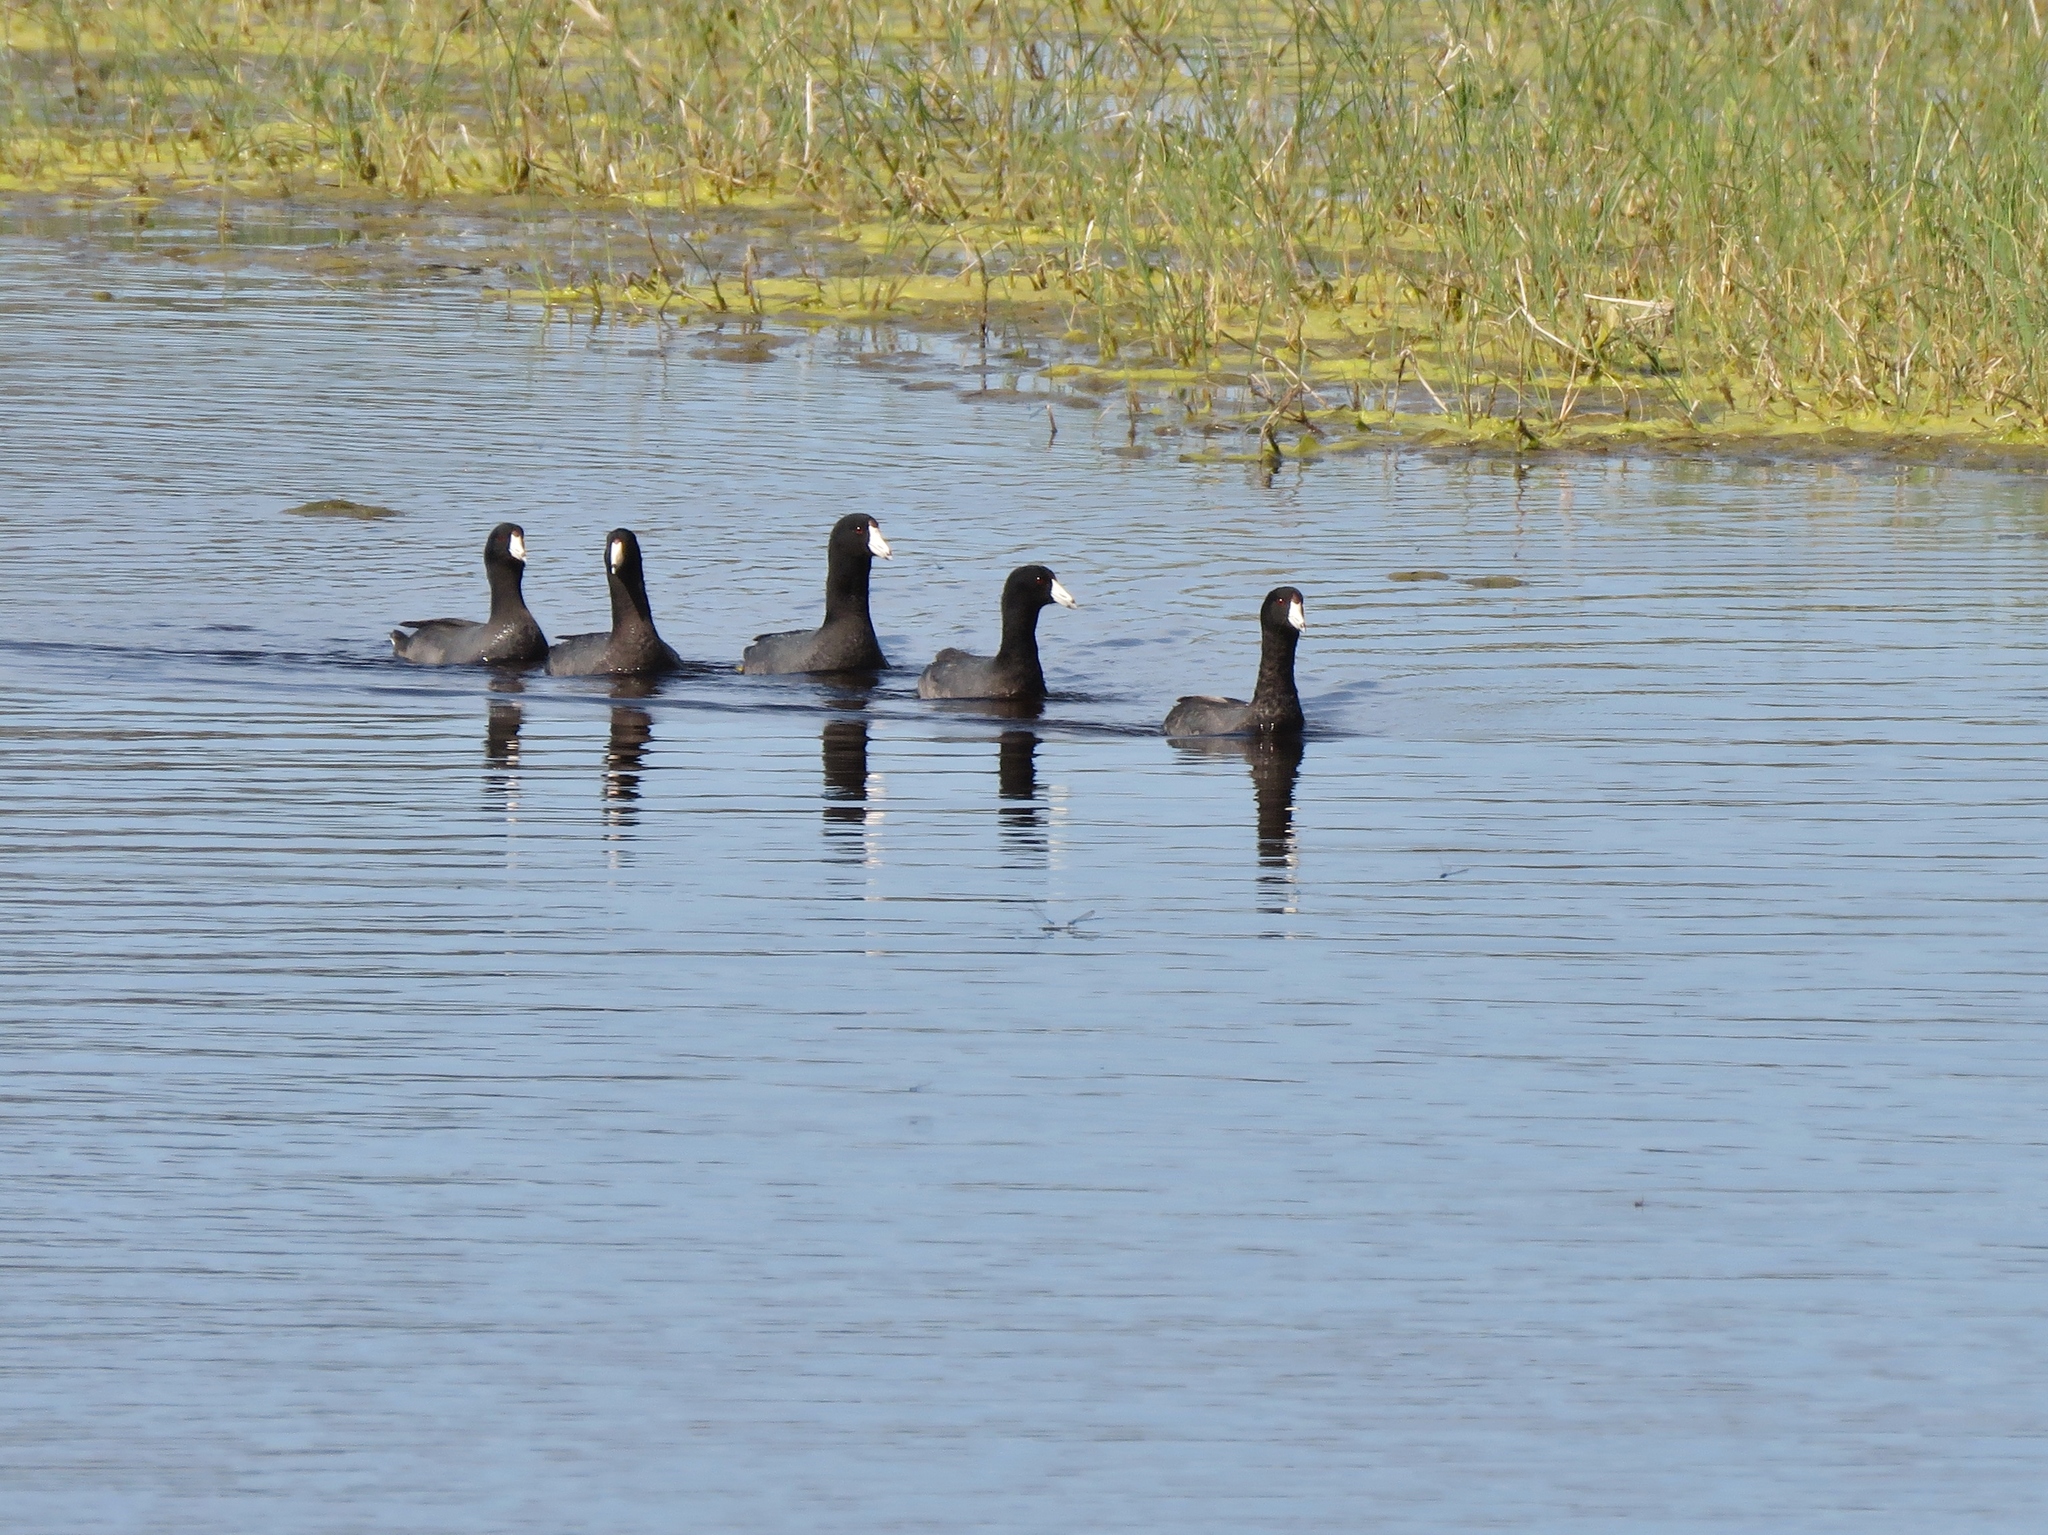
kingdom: Animalia
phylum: Chordata
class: Aves
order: Gruiformes
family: Rallidae
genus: Fulica
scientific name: Fulica americana
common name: American coot
